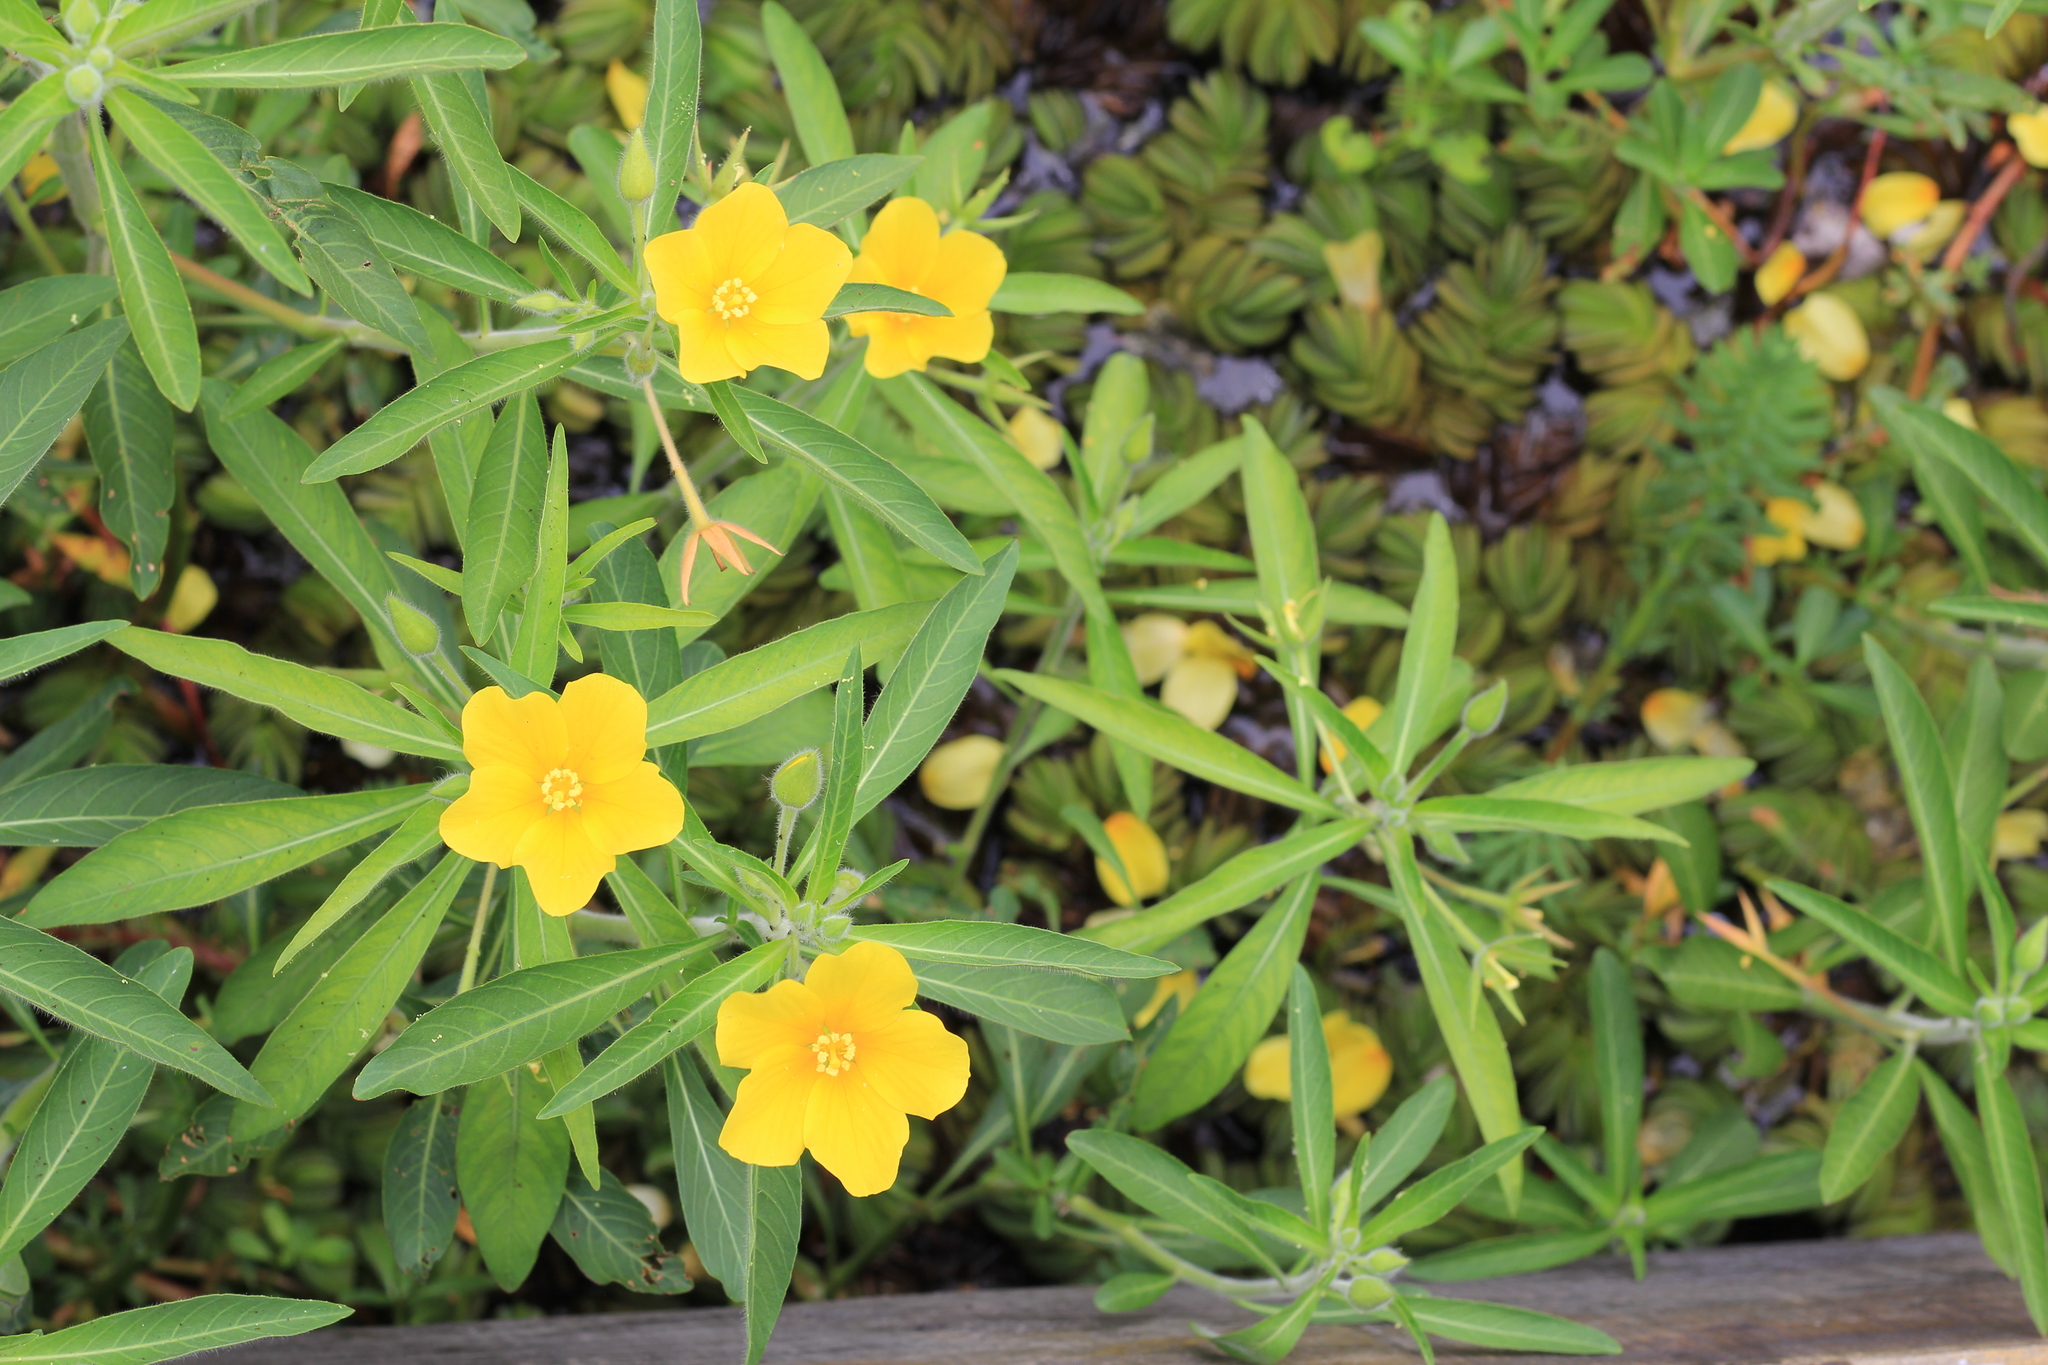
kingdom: Plantae
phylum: Tracheophyta
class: Magnoliopsida
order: Myrtales
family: Onagraceae
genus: Ludwigia
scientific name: Ludwigia peploides
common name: Floating primrose-willow
